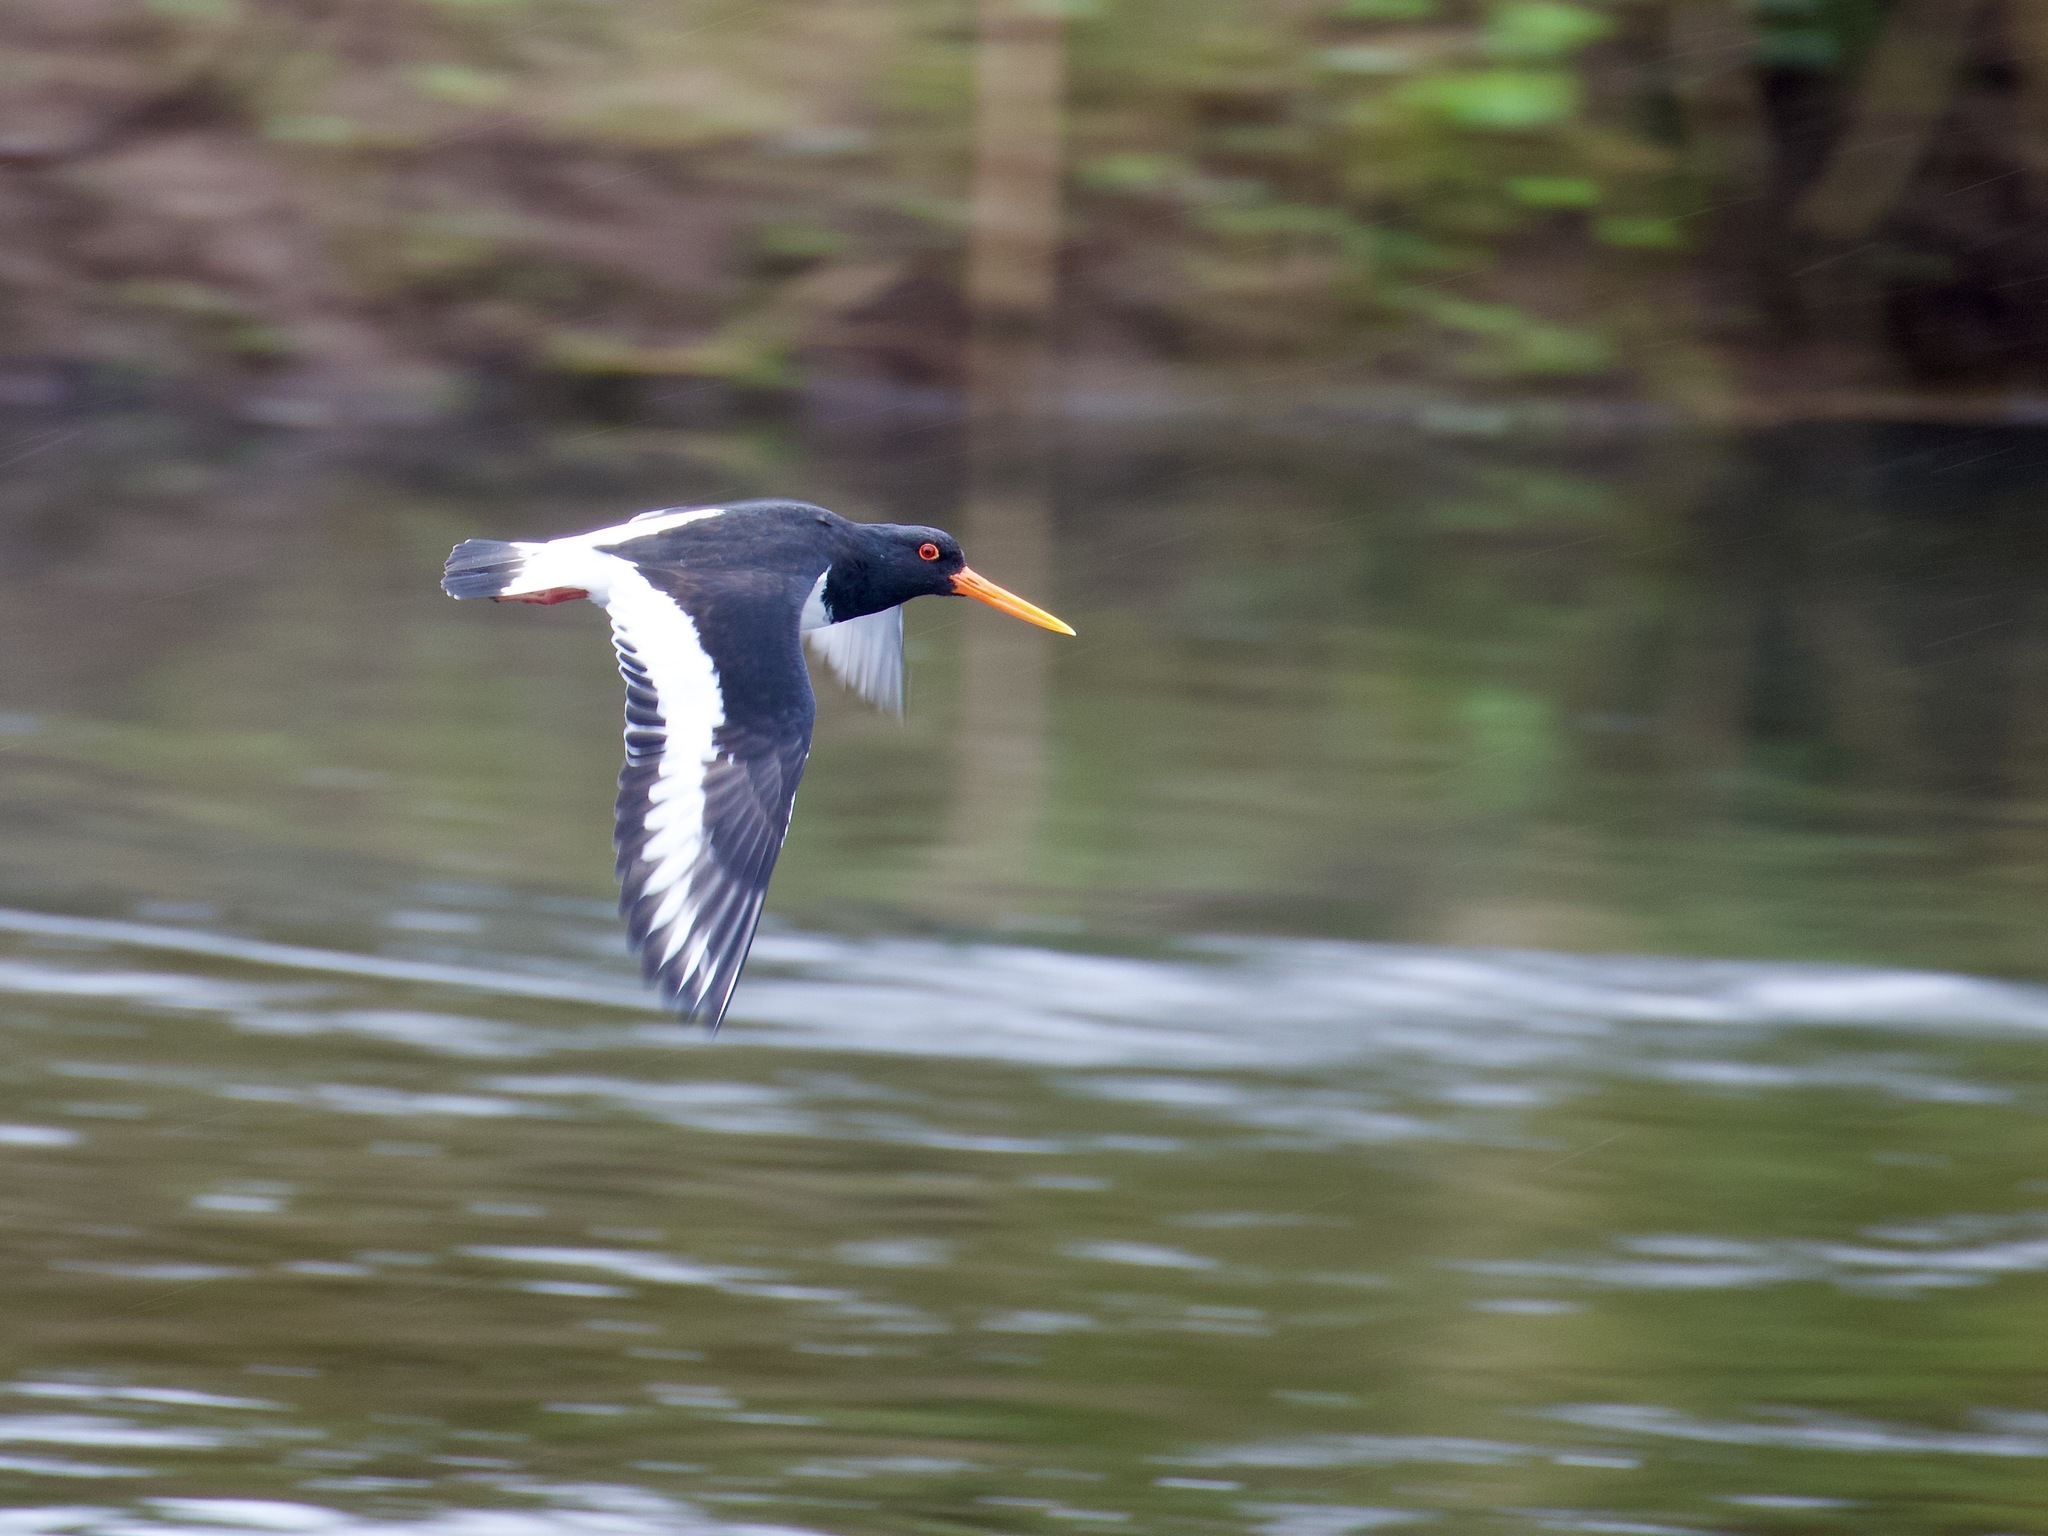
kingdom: Animalia
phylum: Chordata
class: Aves
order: Charadriiformes
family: Haematopodidae
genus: Haematopus
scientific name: Haematopus ostralegus
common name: Eurasian oystercatcher
